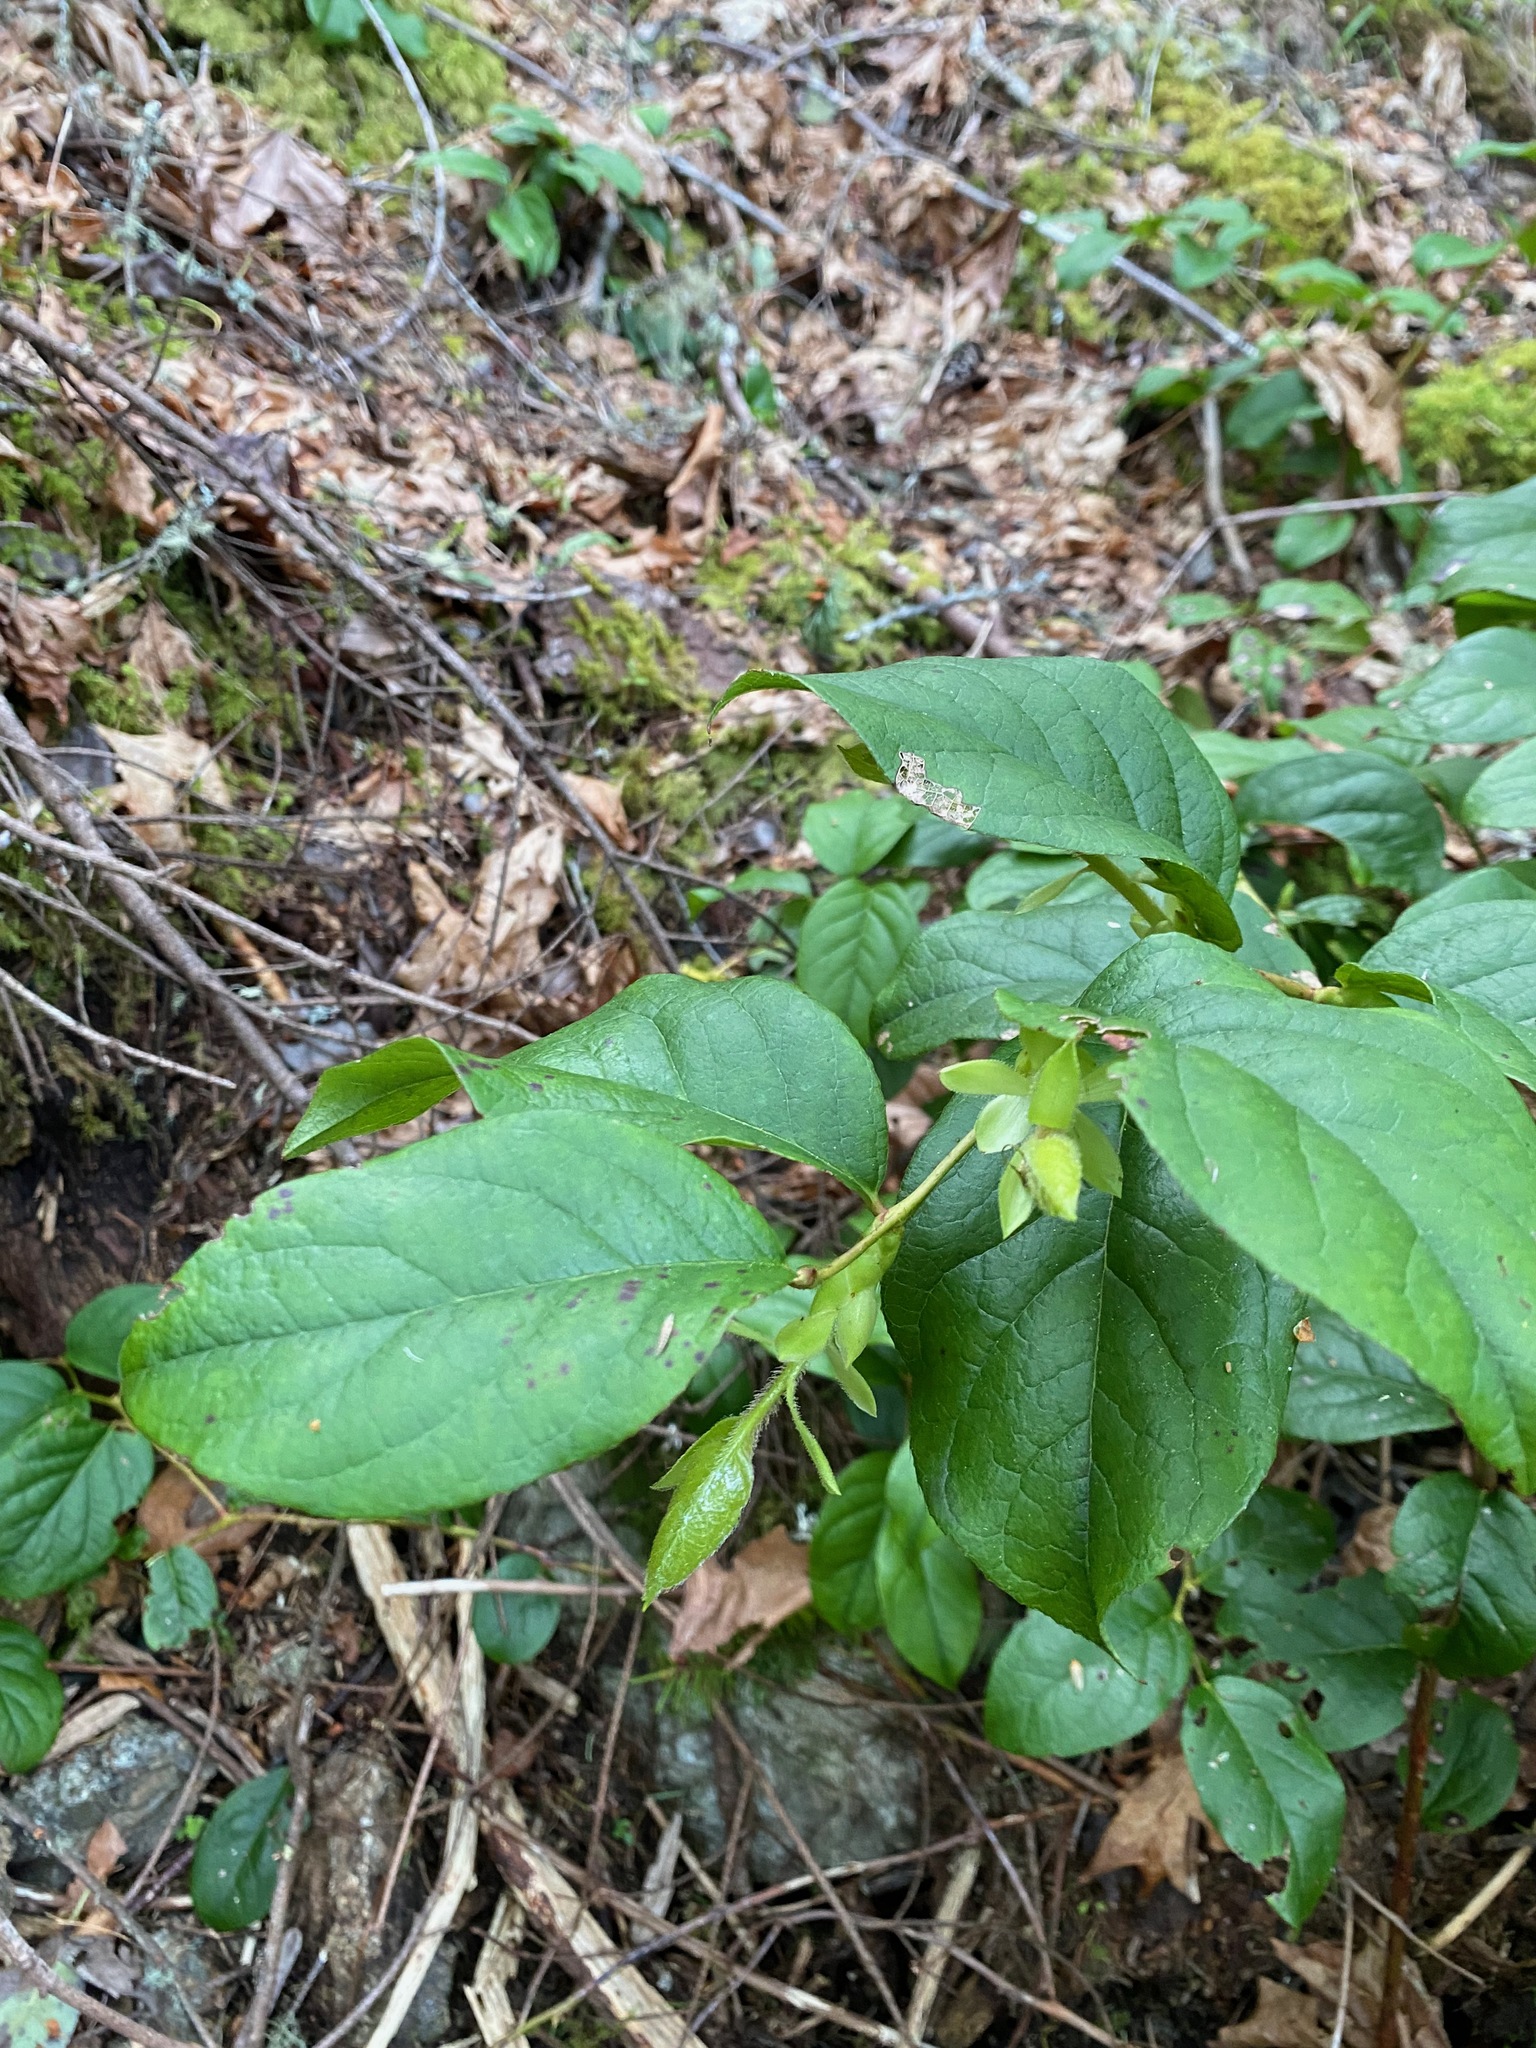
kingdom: Plantae
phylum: Tracheophyta
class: Magnoliopsida
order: Ericales
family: Ericaceae
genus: Gaultheria
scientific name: Gaultheria shallon
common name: Shallon
